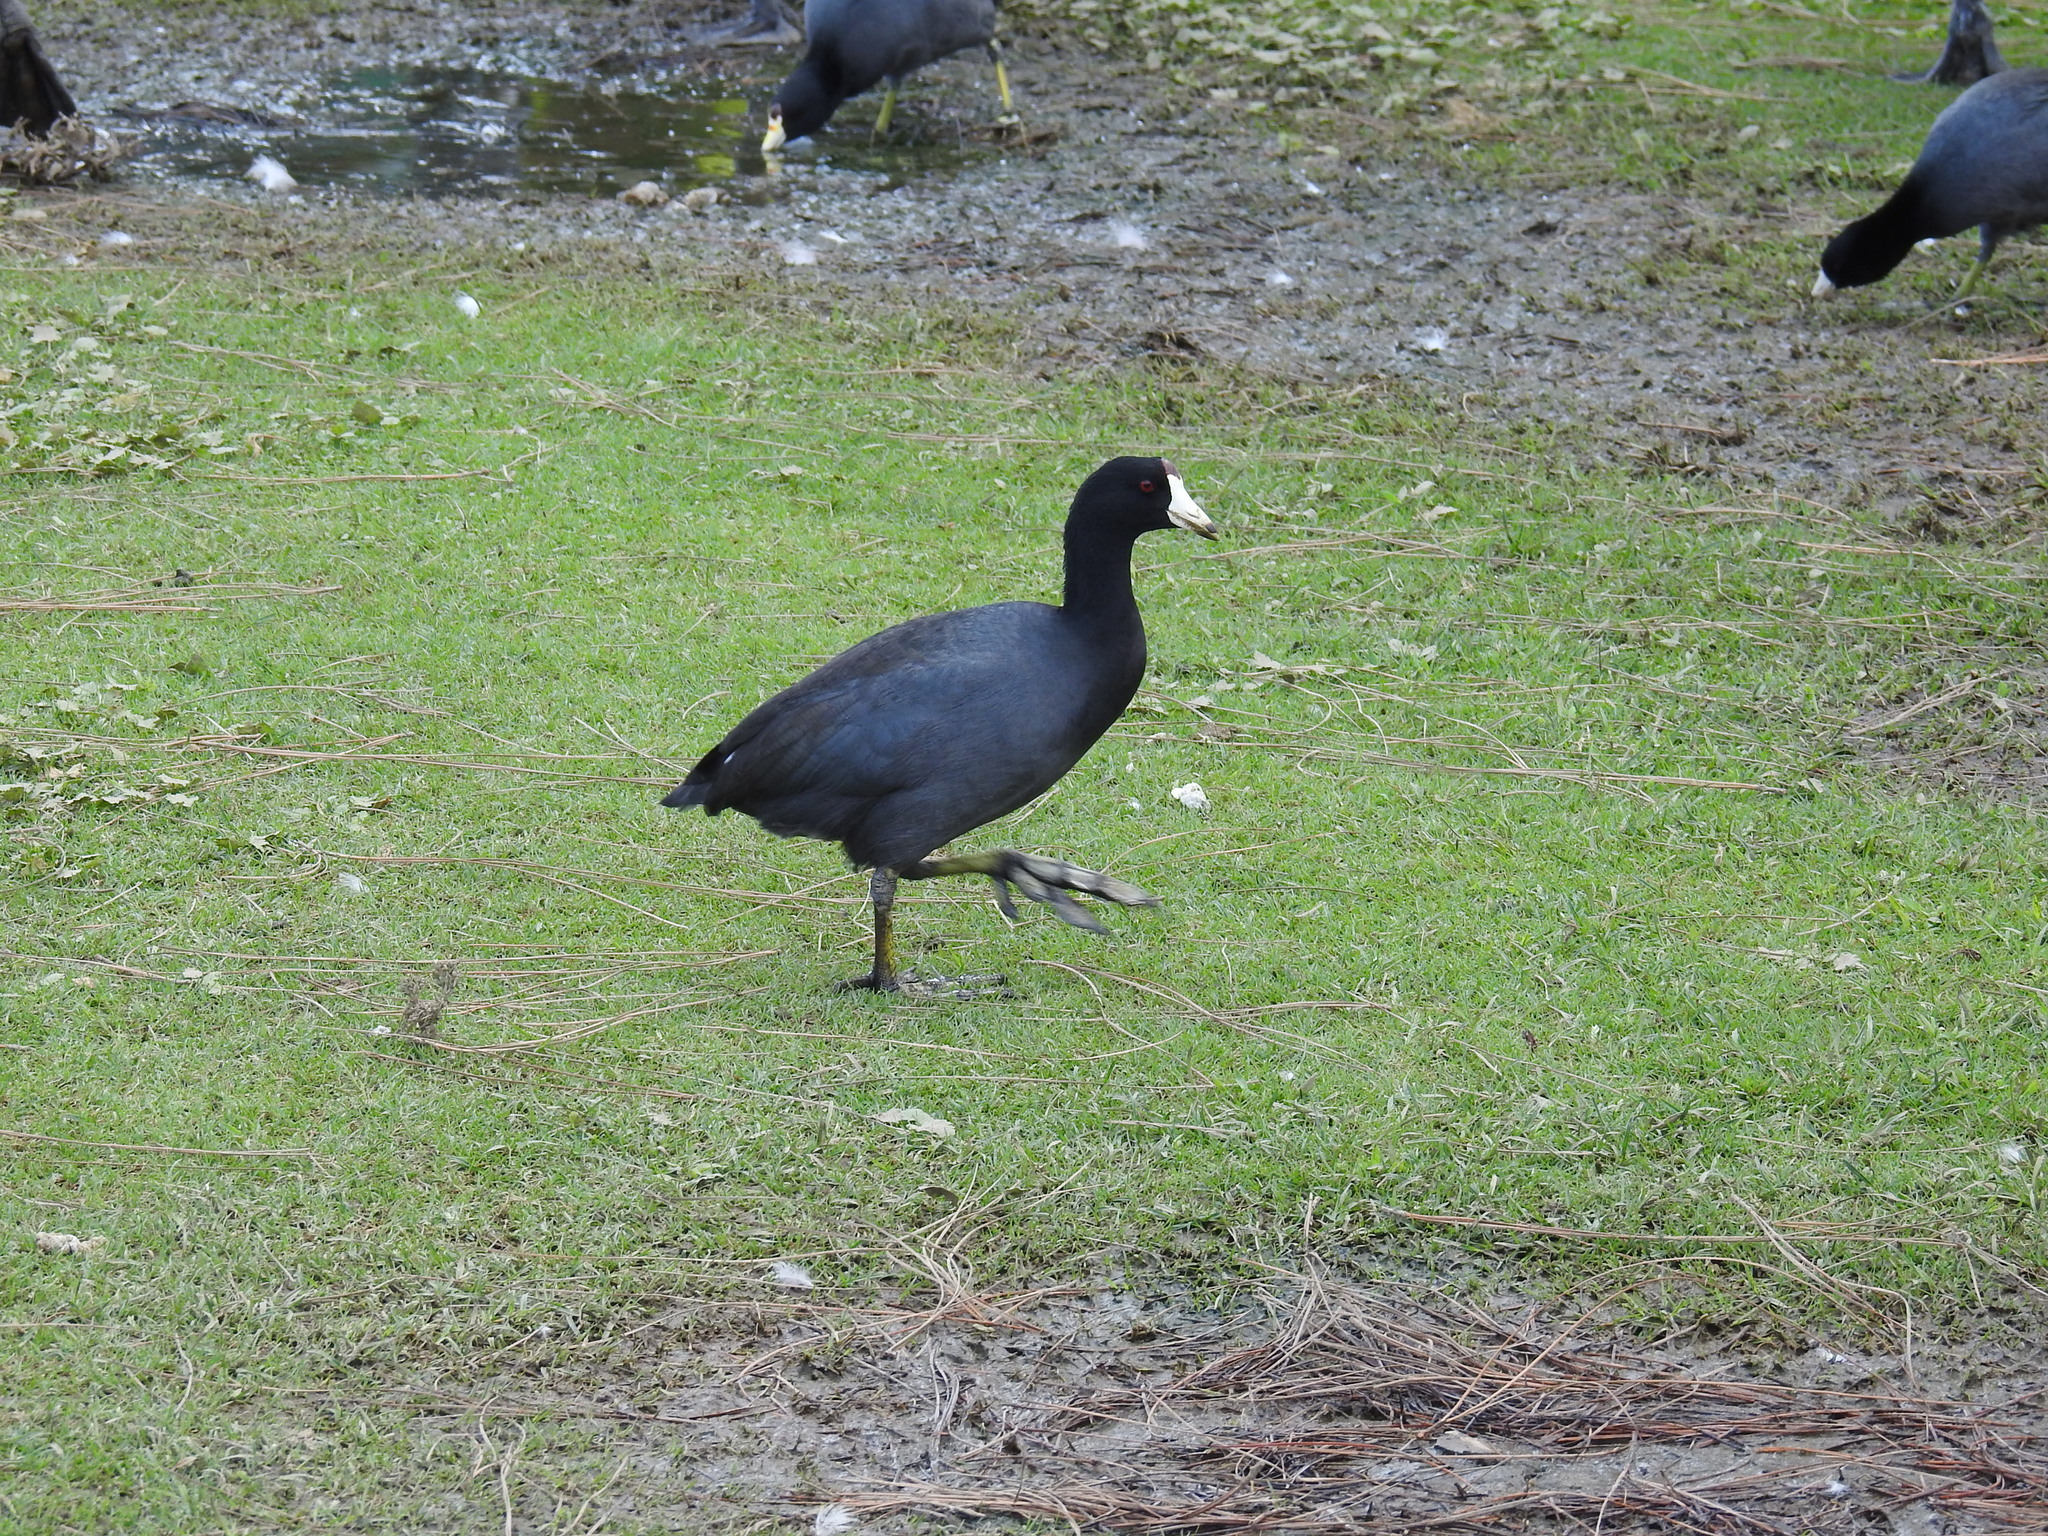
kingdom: Animalia
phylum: Chordata
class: Aves
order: Gruiformes
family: Rallidae
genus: Fulica
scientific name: Fulica americana
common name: American coot
